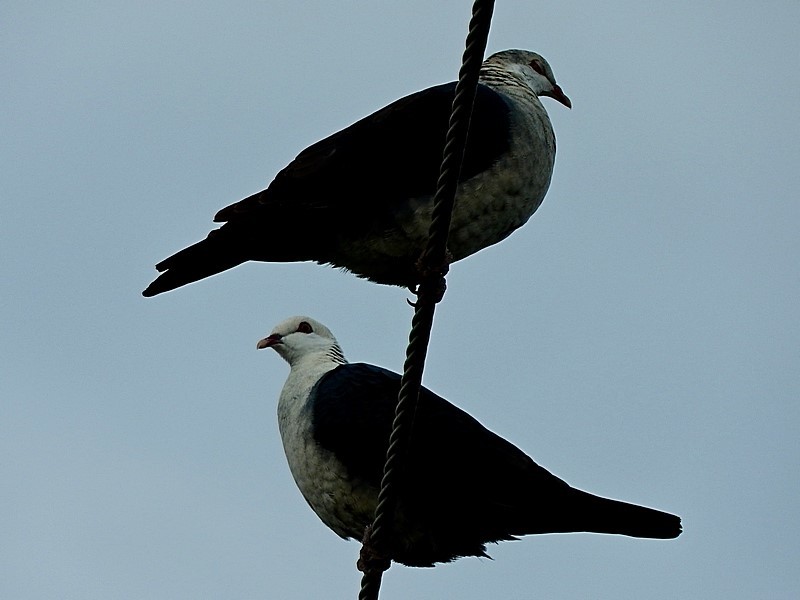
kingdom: Animalia
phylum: Chordata
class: Aves
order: Columbiformes
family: Columbidae
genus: Columba
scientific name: Columba leucomela
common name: White-headed pigeon
